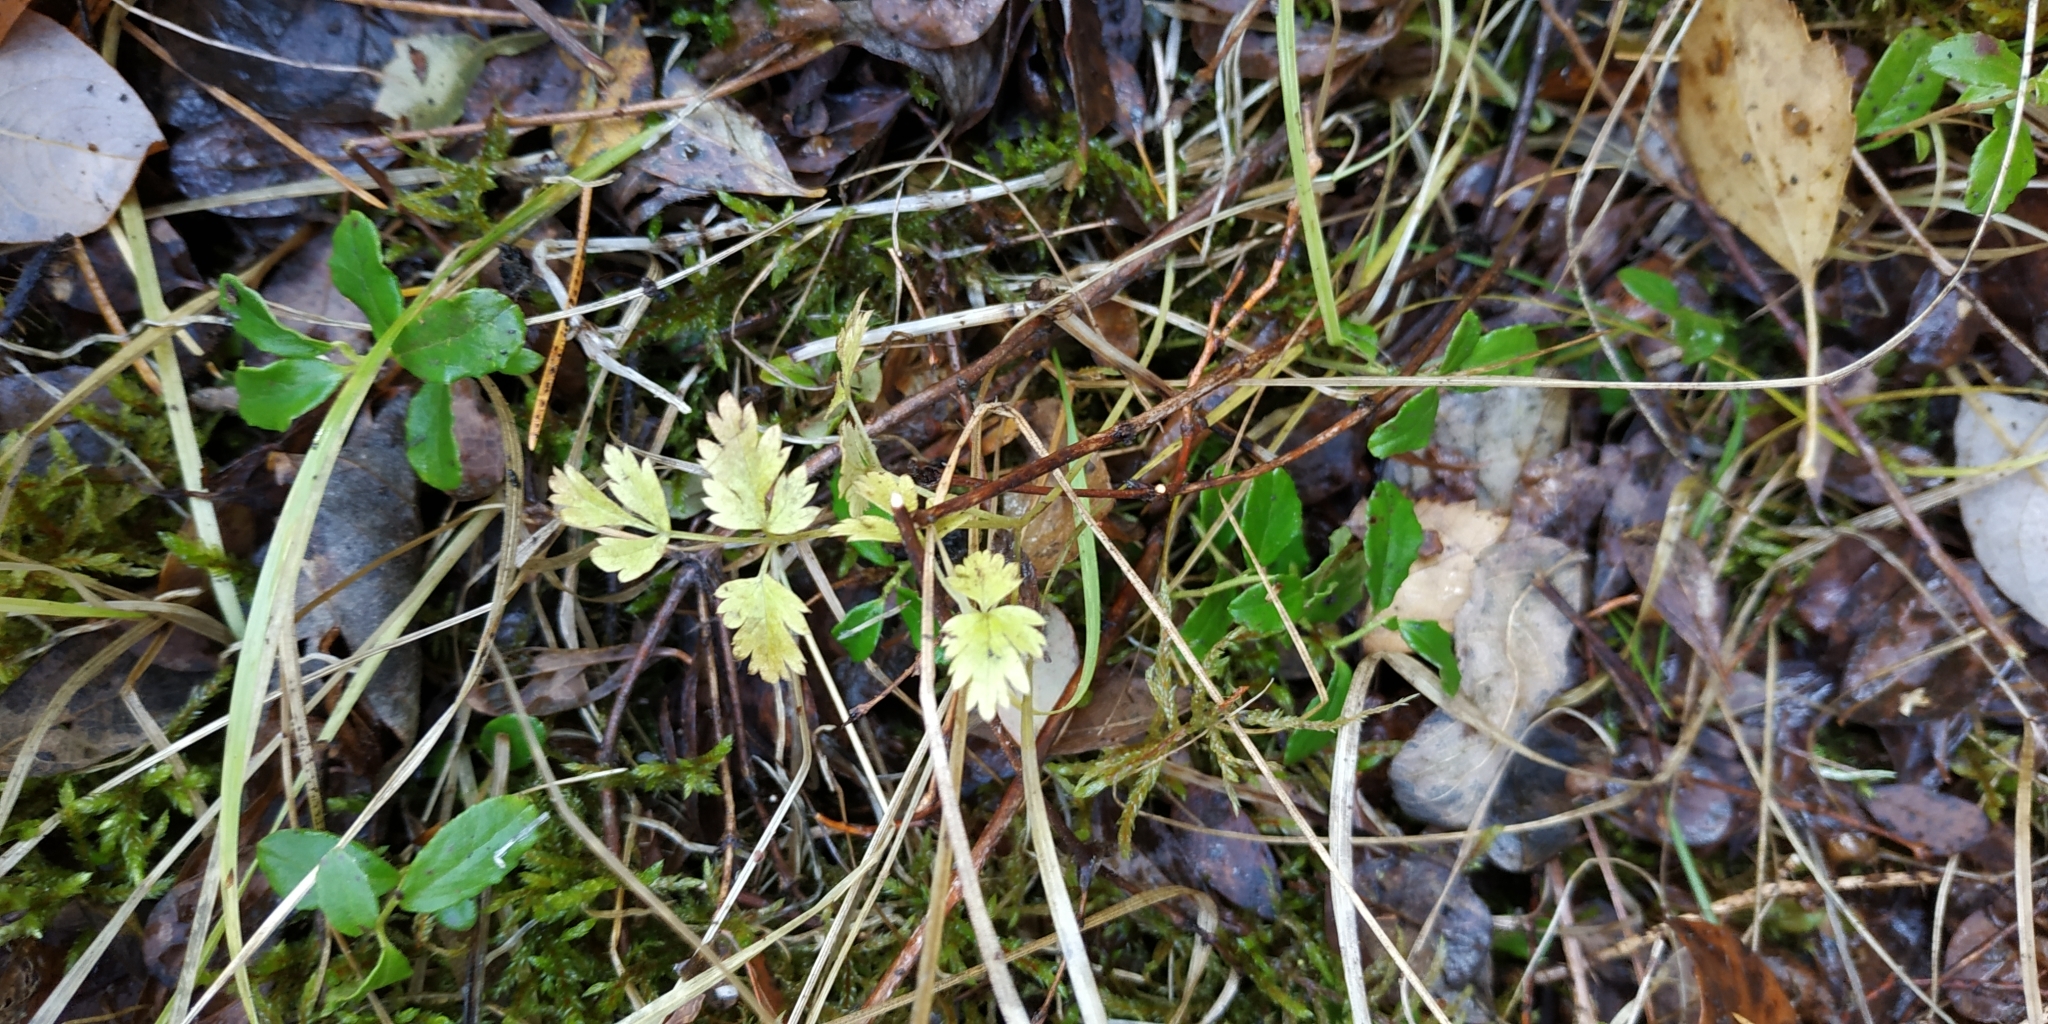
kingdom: Plantae
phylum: Tracheophyta
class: Magnoliopsida
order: Apiales
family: Apiaceae
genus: Aegopodium
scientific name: Aegopodium alpestre
